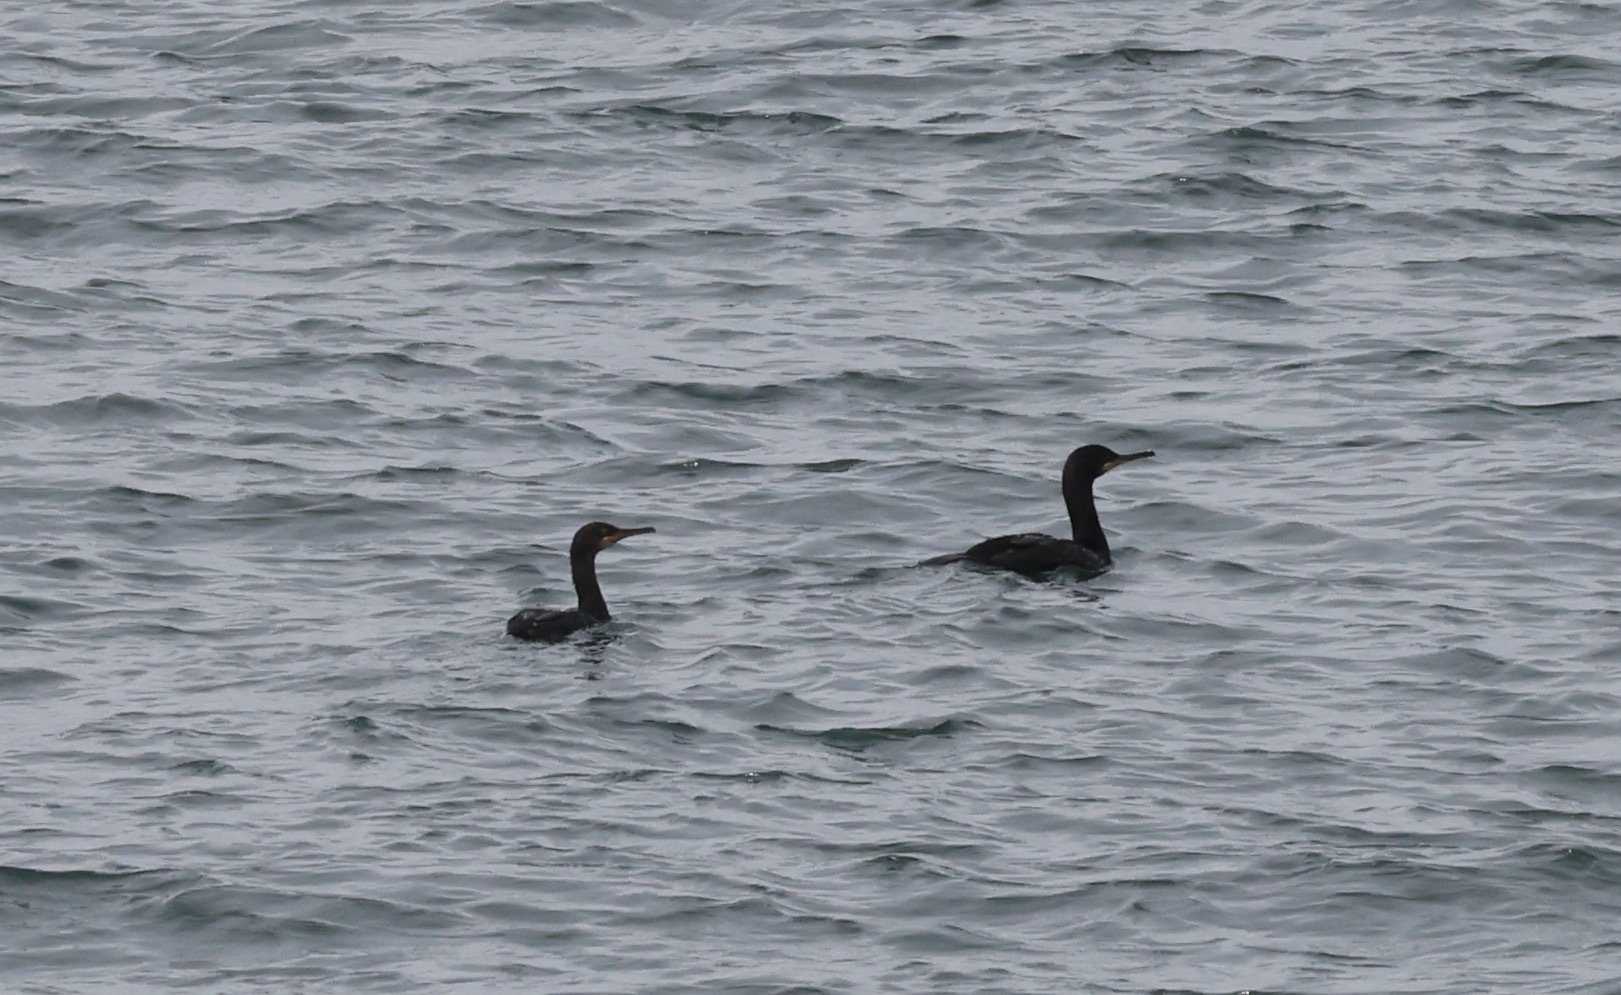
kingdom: Animalia
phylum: Chordata
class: Aves
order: Suliformes
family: Phalacrocoracidae
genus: Phalacrocorax
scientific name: Phalacrocorax aristotelis
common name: European shag
